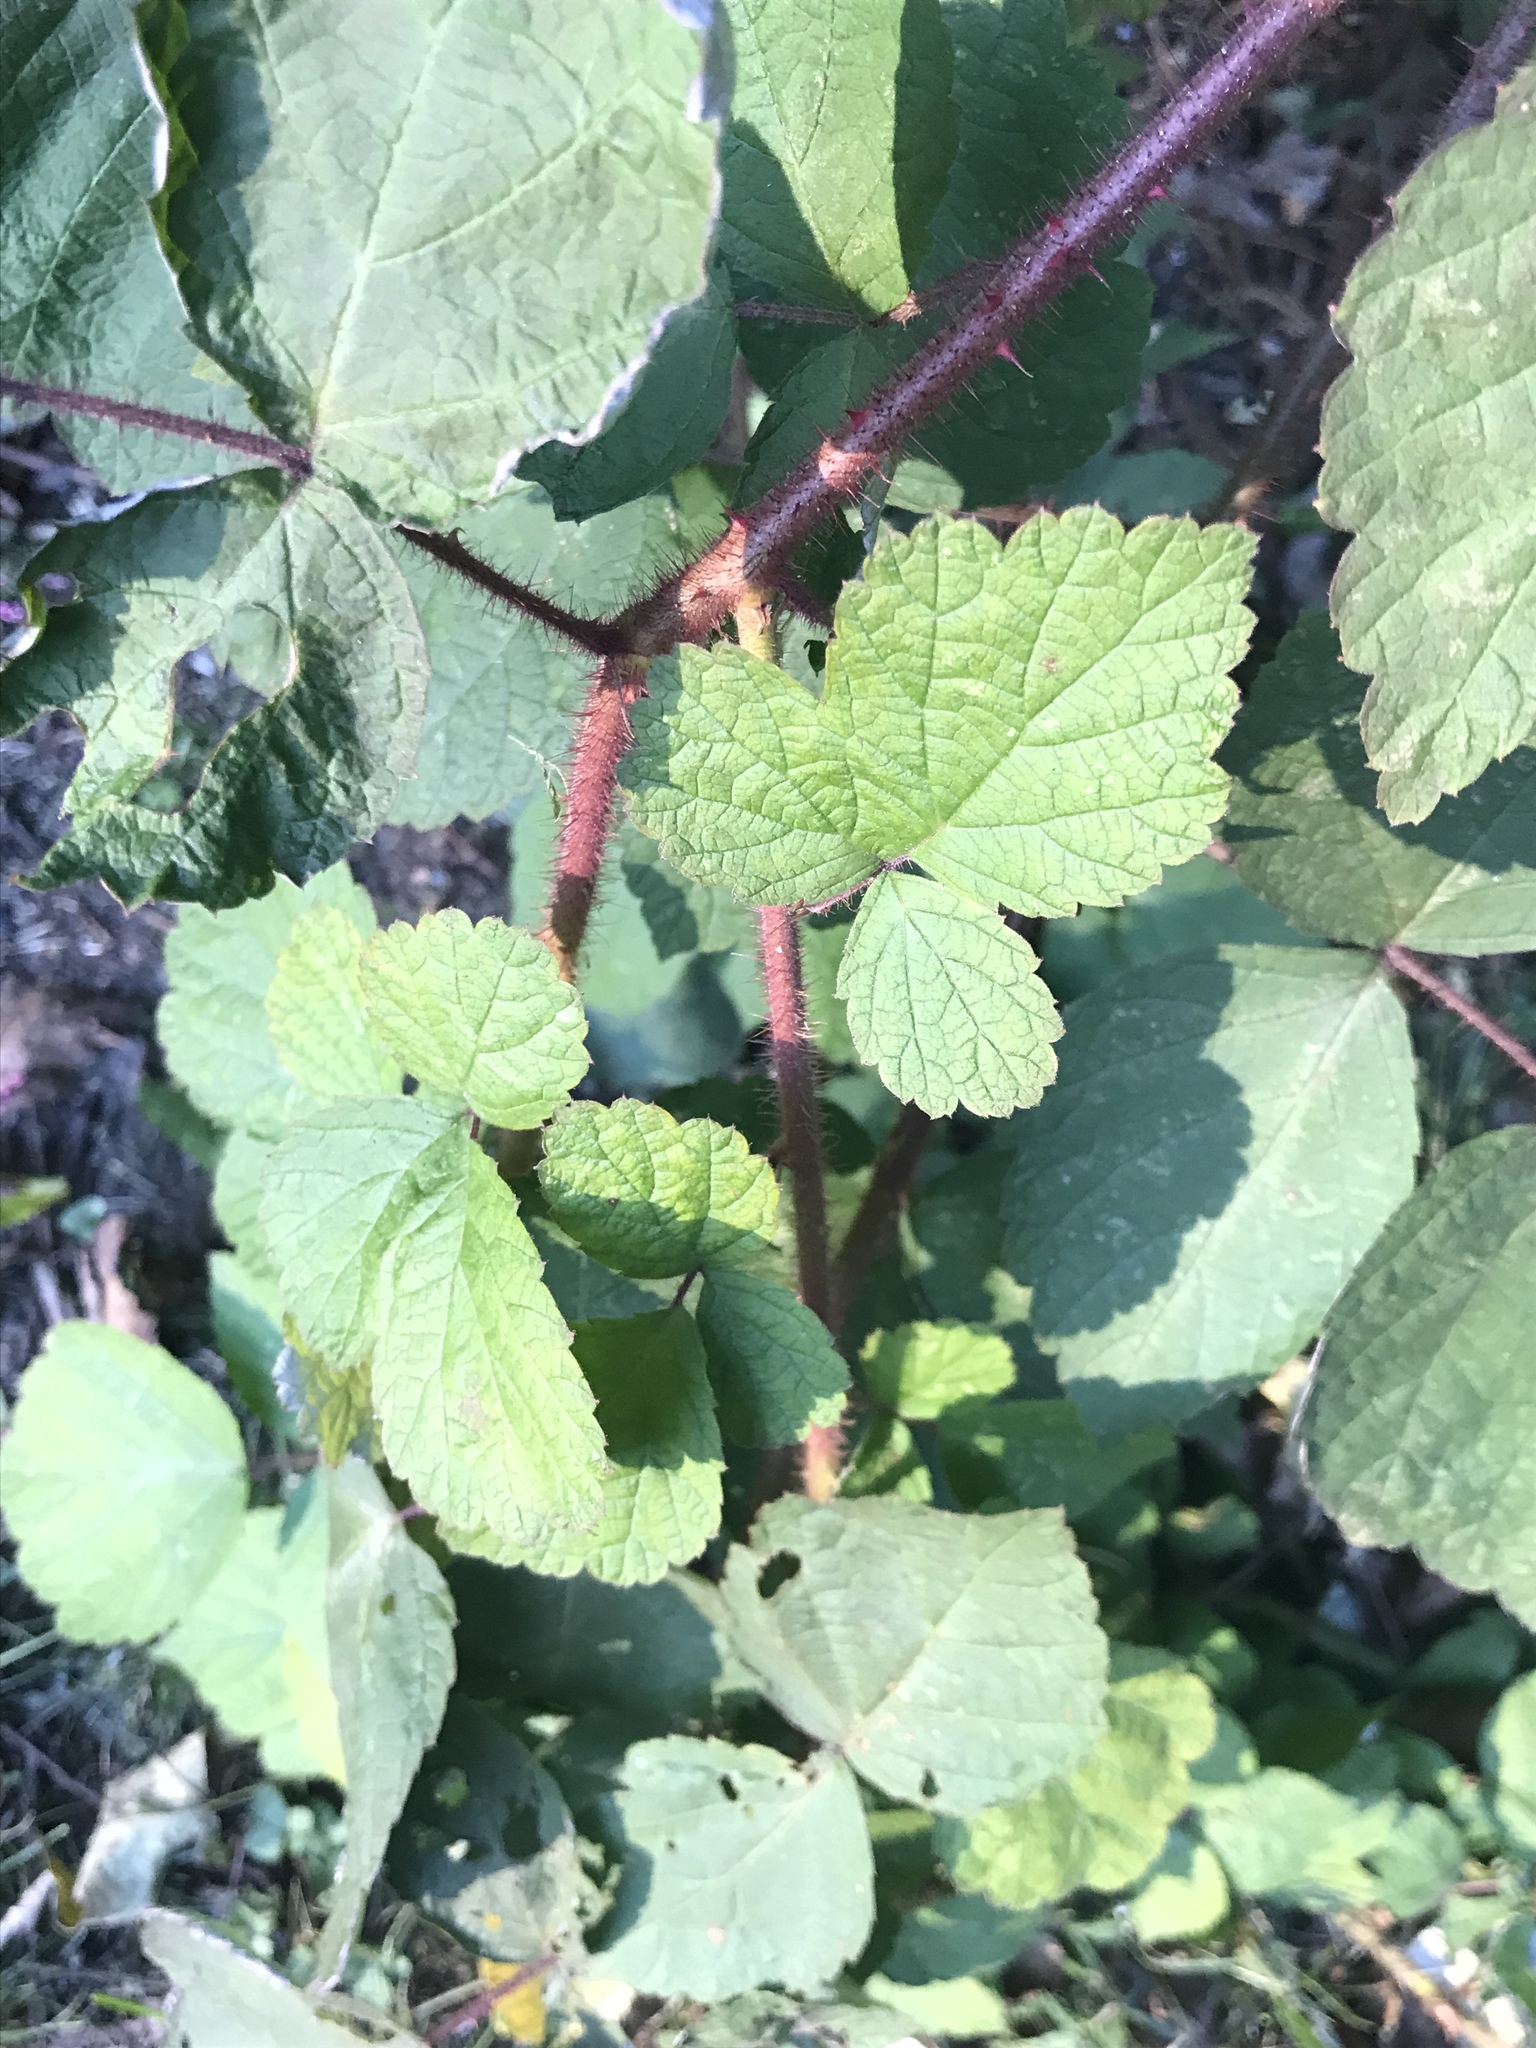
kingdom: Plantae
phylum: Tracheophyta
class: Magnoliopsida
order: Rosales
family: Rosaceae
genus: Rubus
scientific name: Rubus phoenicolasius
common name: Japanese wineberry
